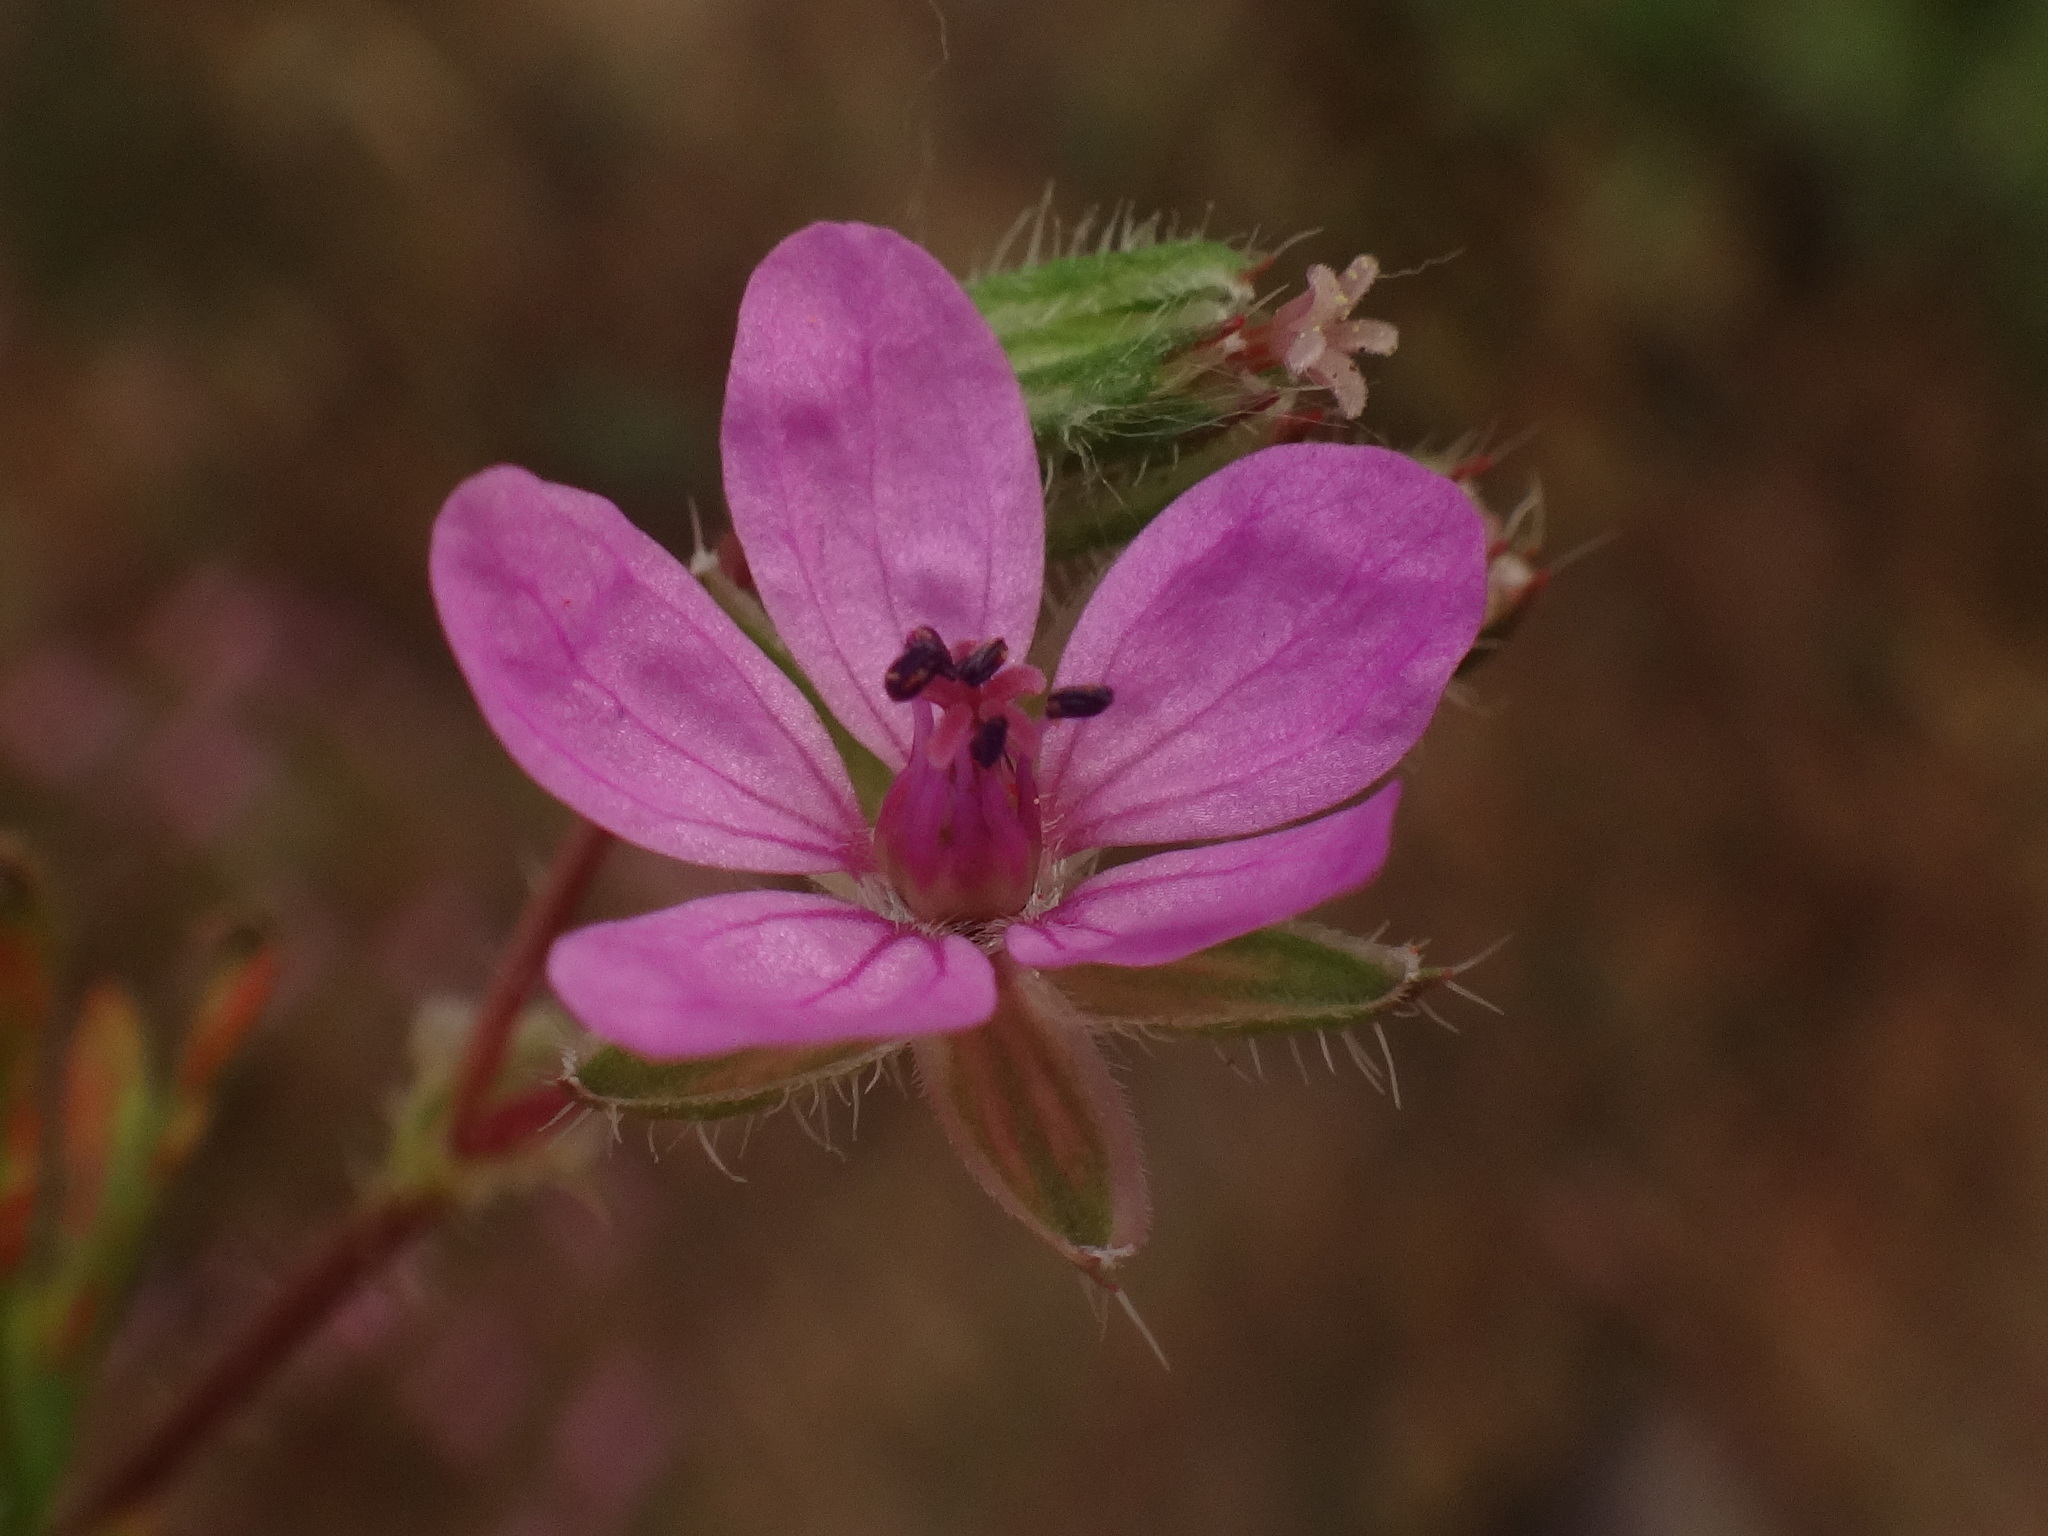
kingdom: Plantae
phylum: Tracheophyta
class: Magnoliopsida
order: Geraniales
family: Geraniaceae
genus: Erodium
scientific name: Erodium cicutarium
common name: Common stork's-bill
